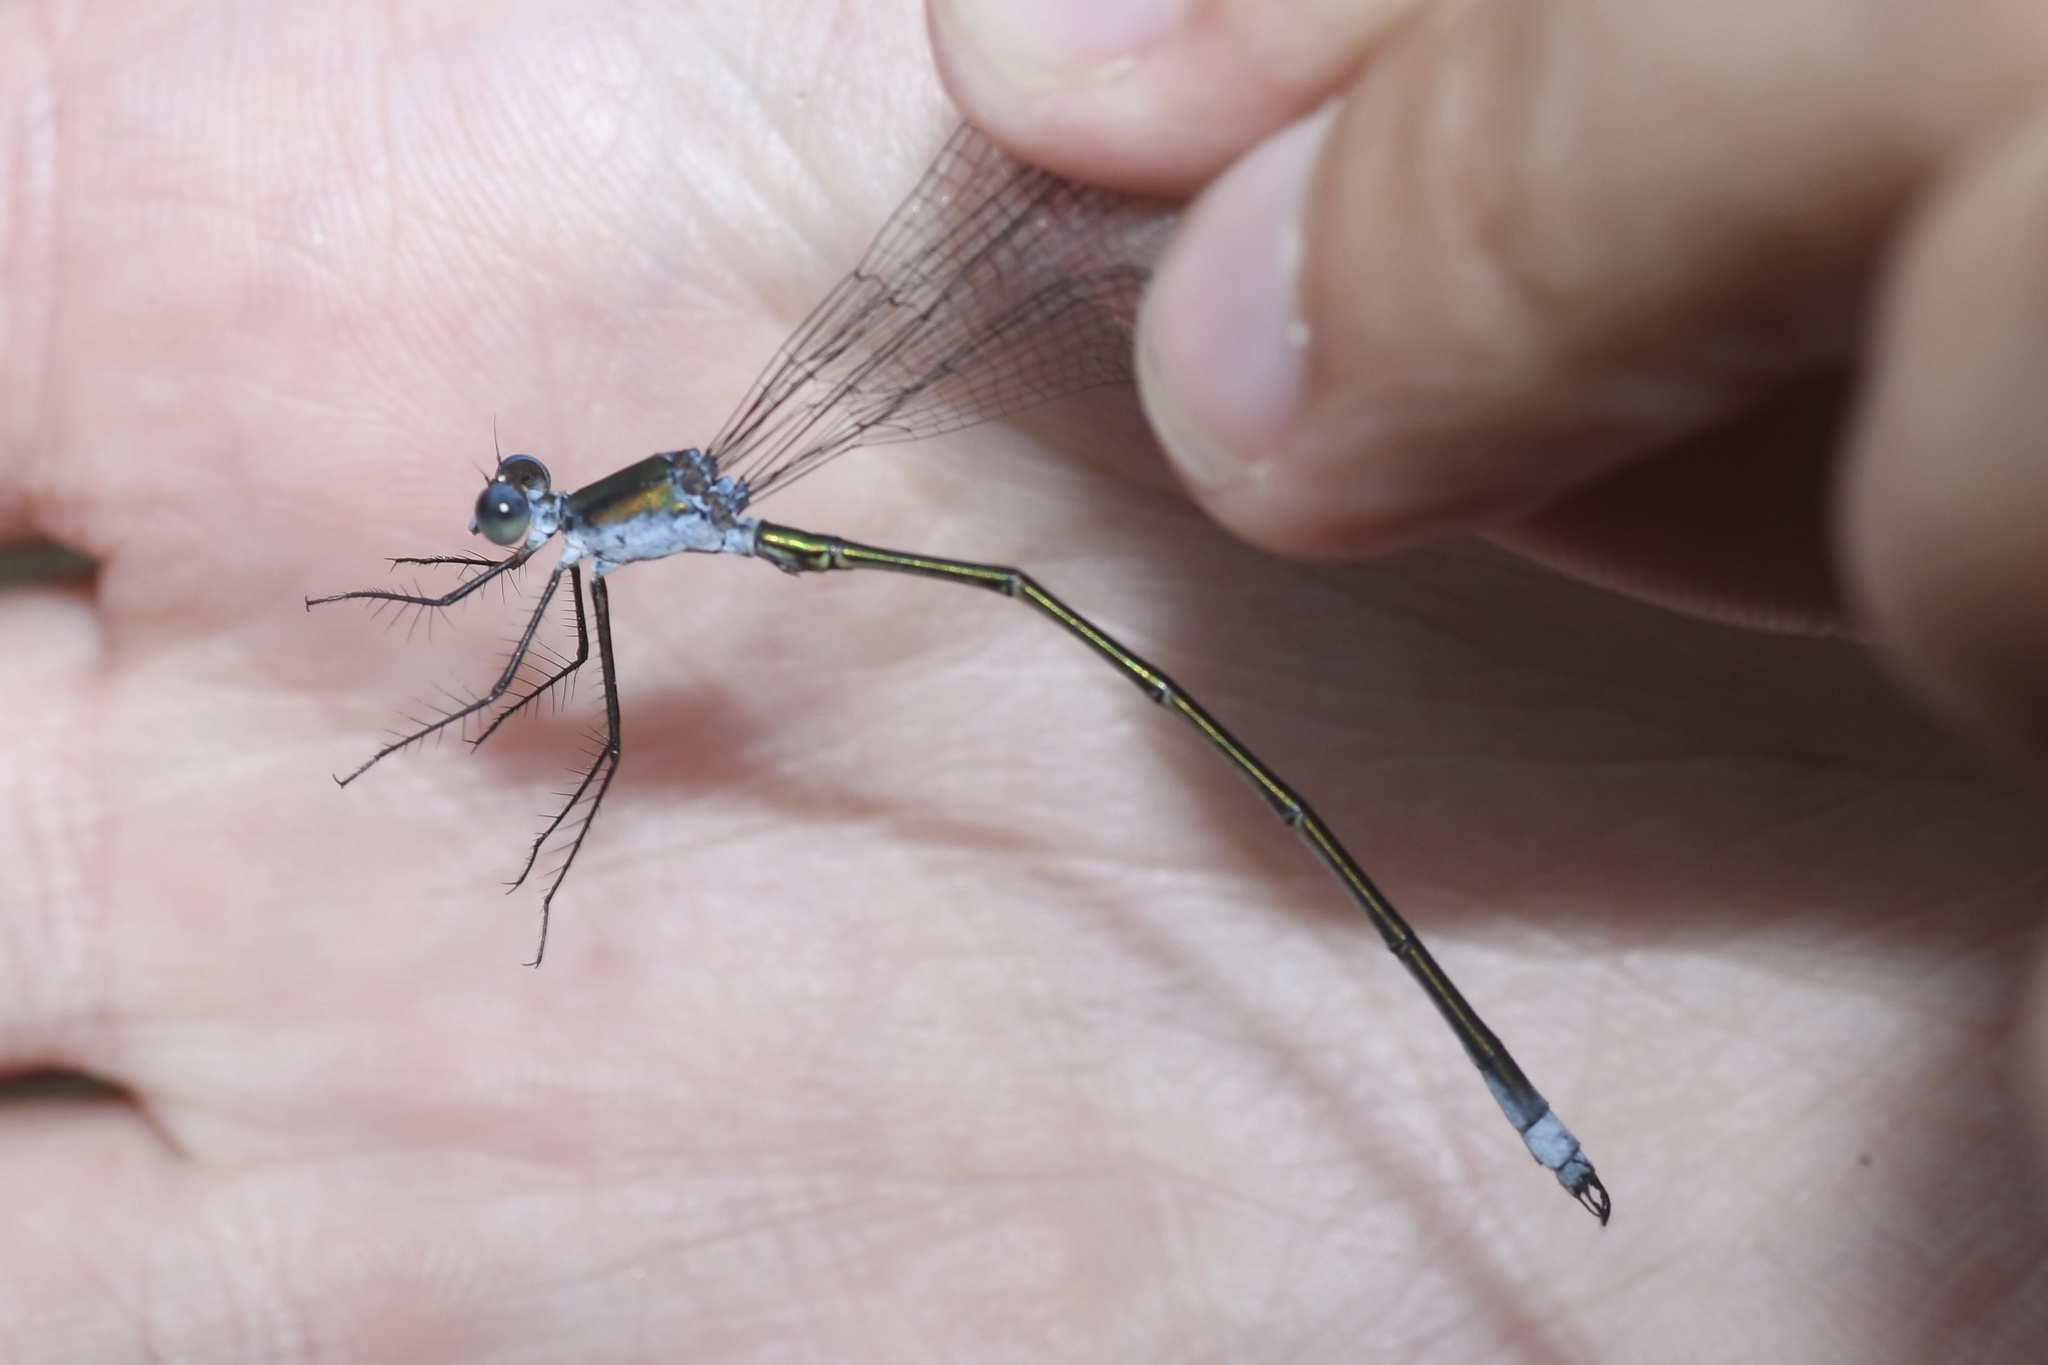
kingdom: Animalia
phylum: Arthropoda
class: Insecta
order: Odonata
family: Lestidae
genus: Lestes
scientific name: Lestes vigilax
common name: Swamp spreadwing
